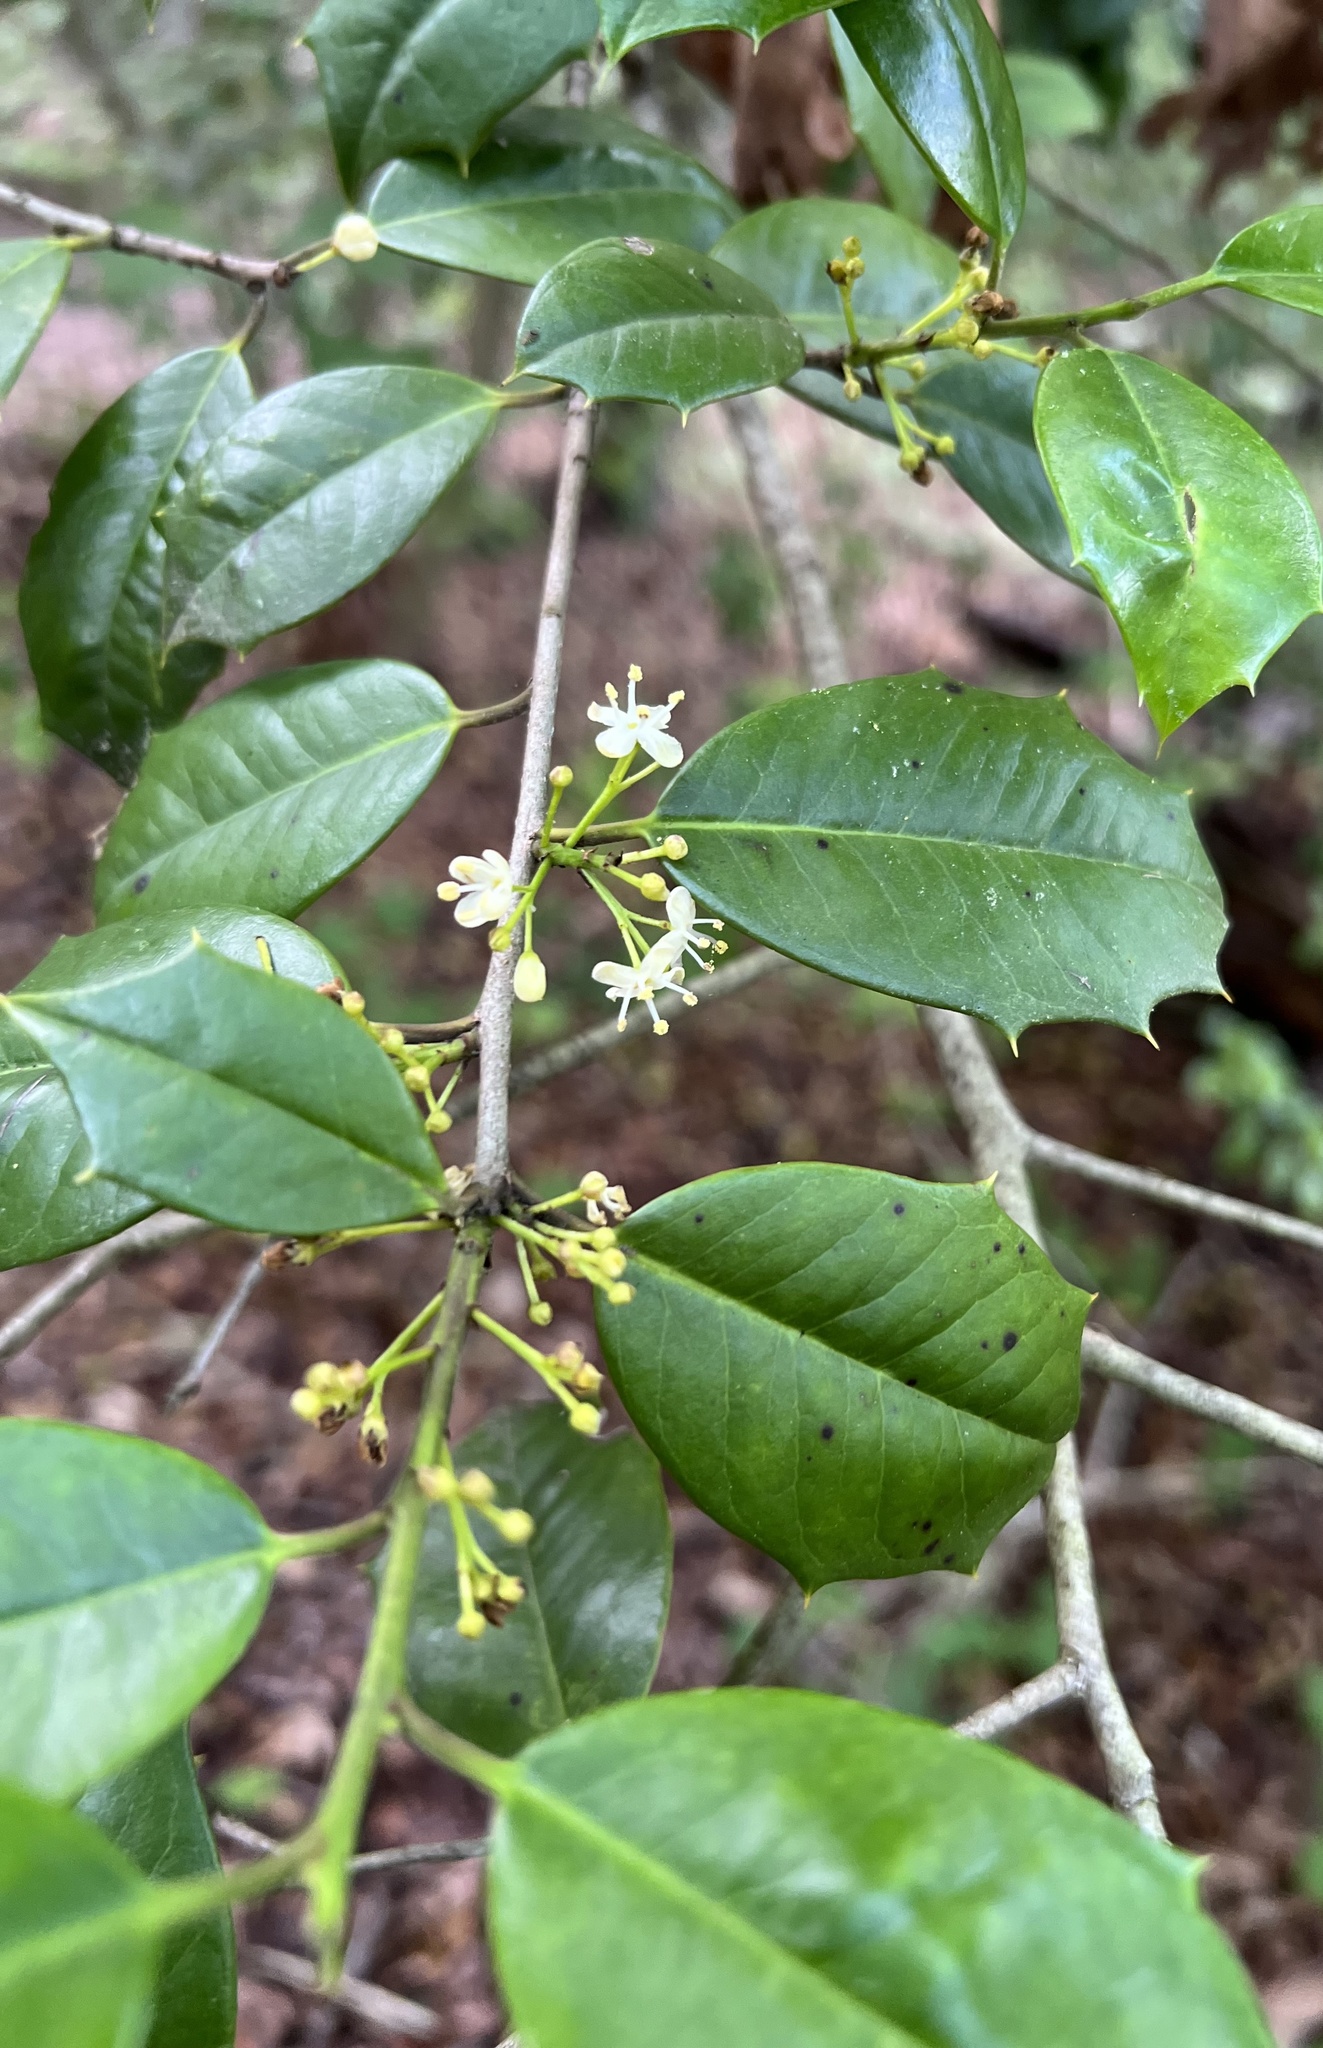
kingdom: Plantae
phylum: Tracheophyta
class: Magnoliopsida
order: Aquifoliales
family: Aquifoliaceae
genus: Ilex
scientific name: Ilex opaca
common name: American holly
